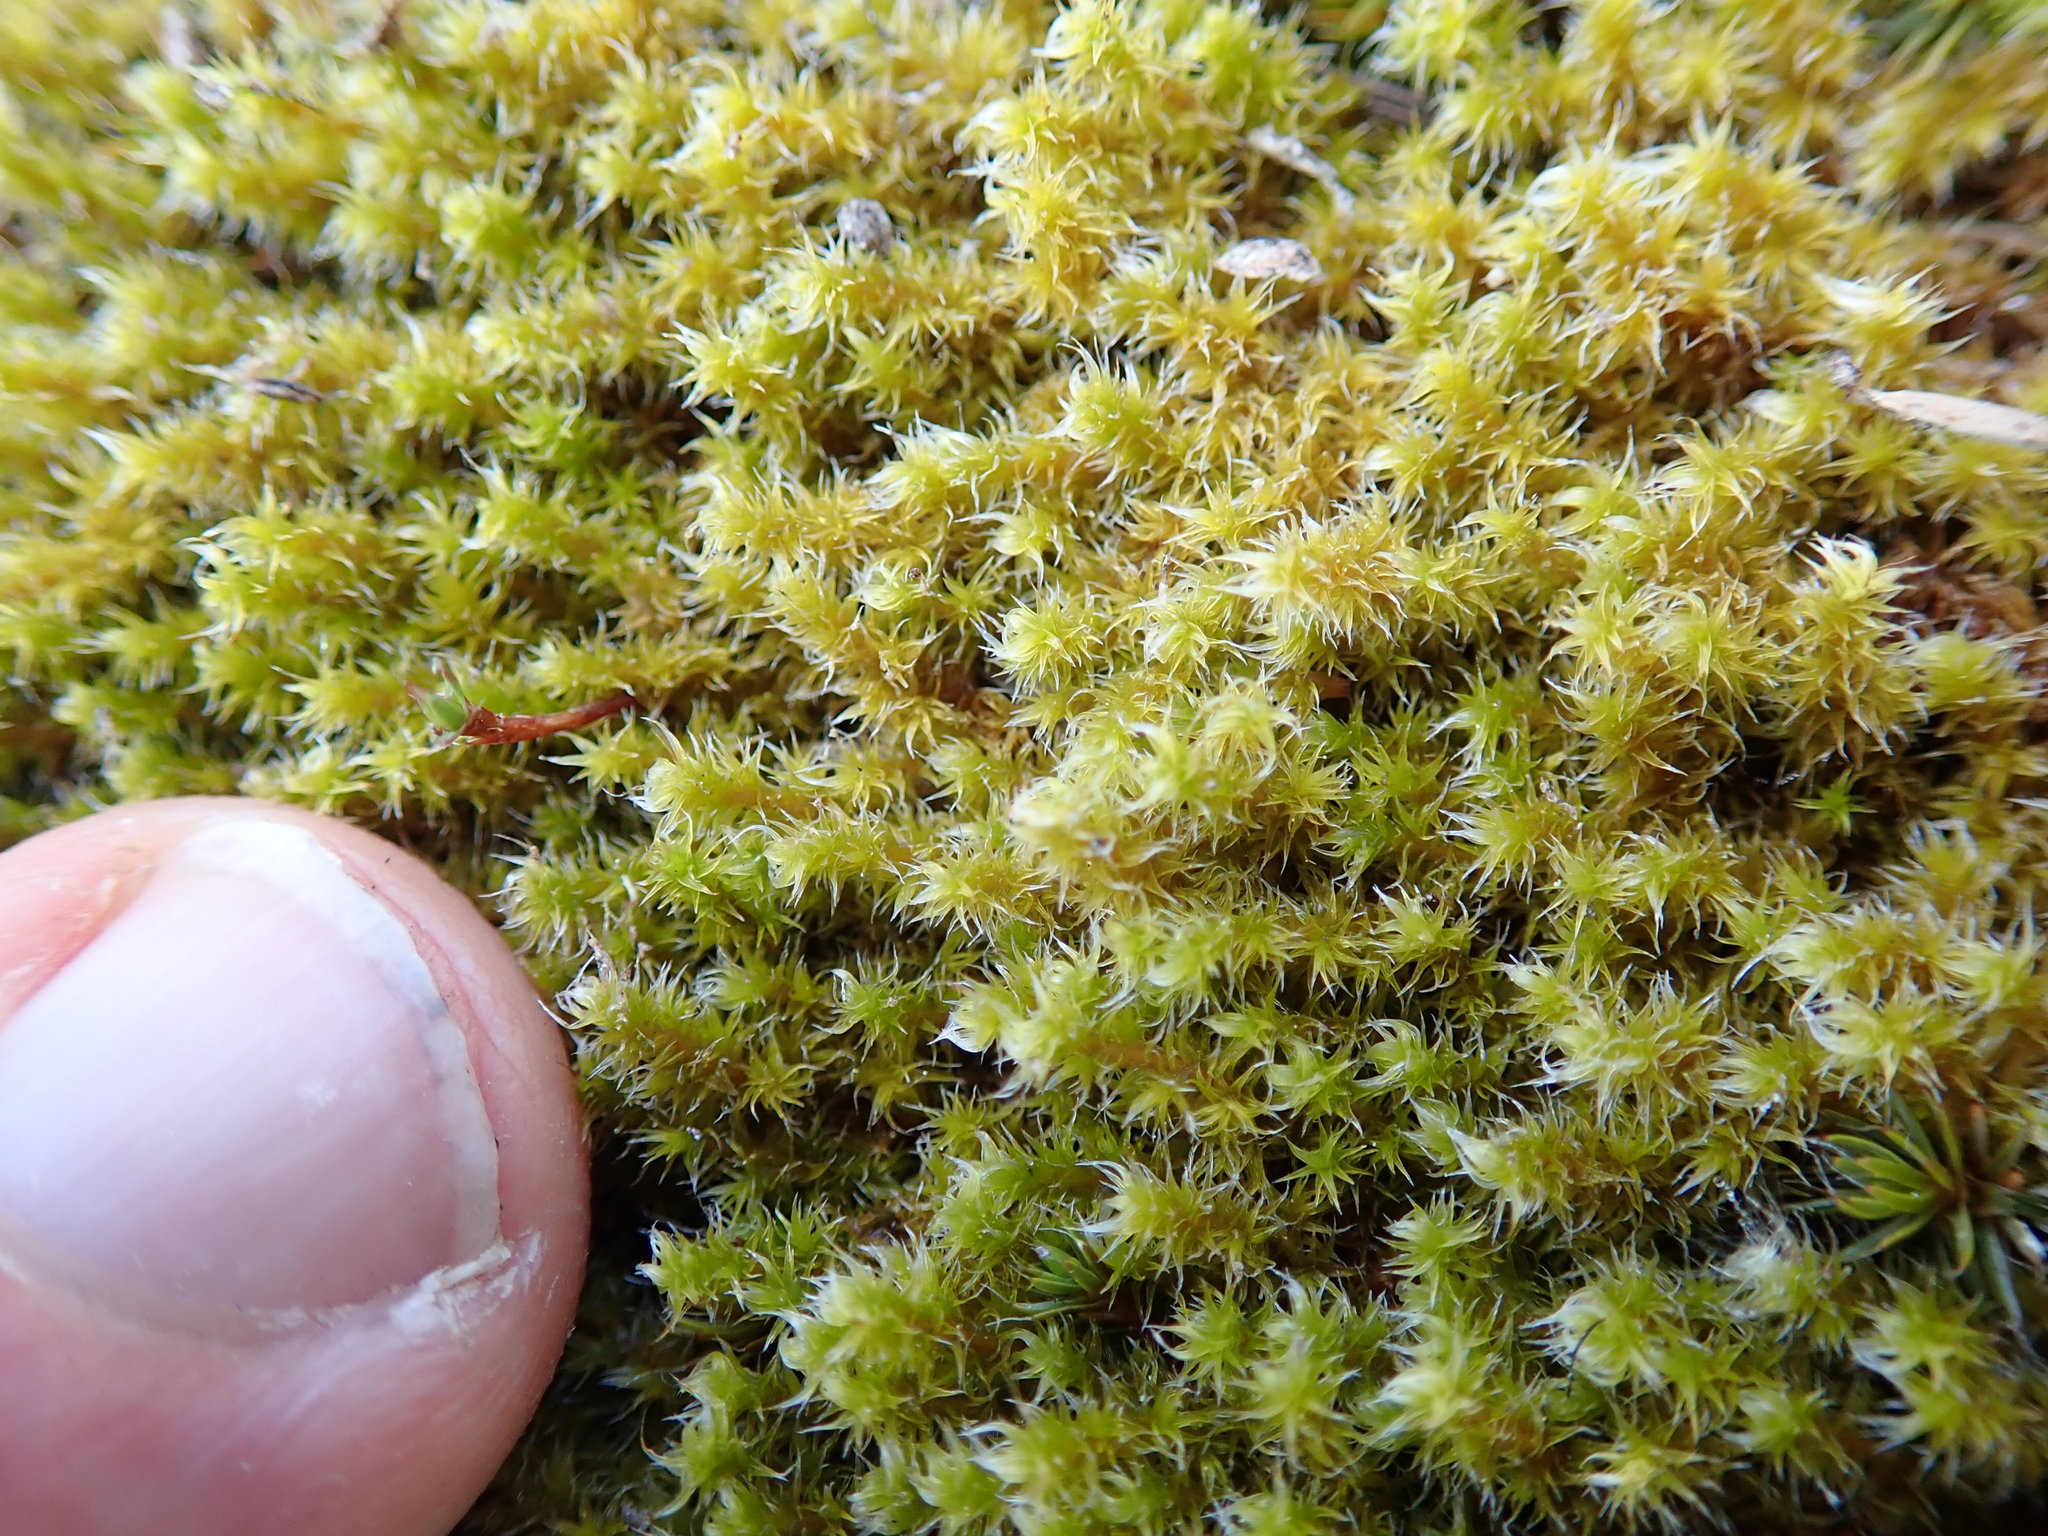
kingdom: Plantae
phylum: Bryophyta
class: Bryopsida
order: Grimmiales
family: Grimmiaceae
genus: Niphotrichum
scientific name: Niphotrichum elongatum
